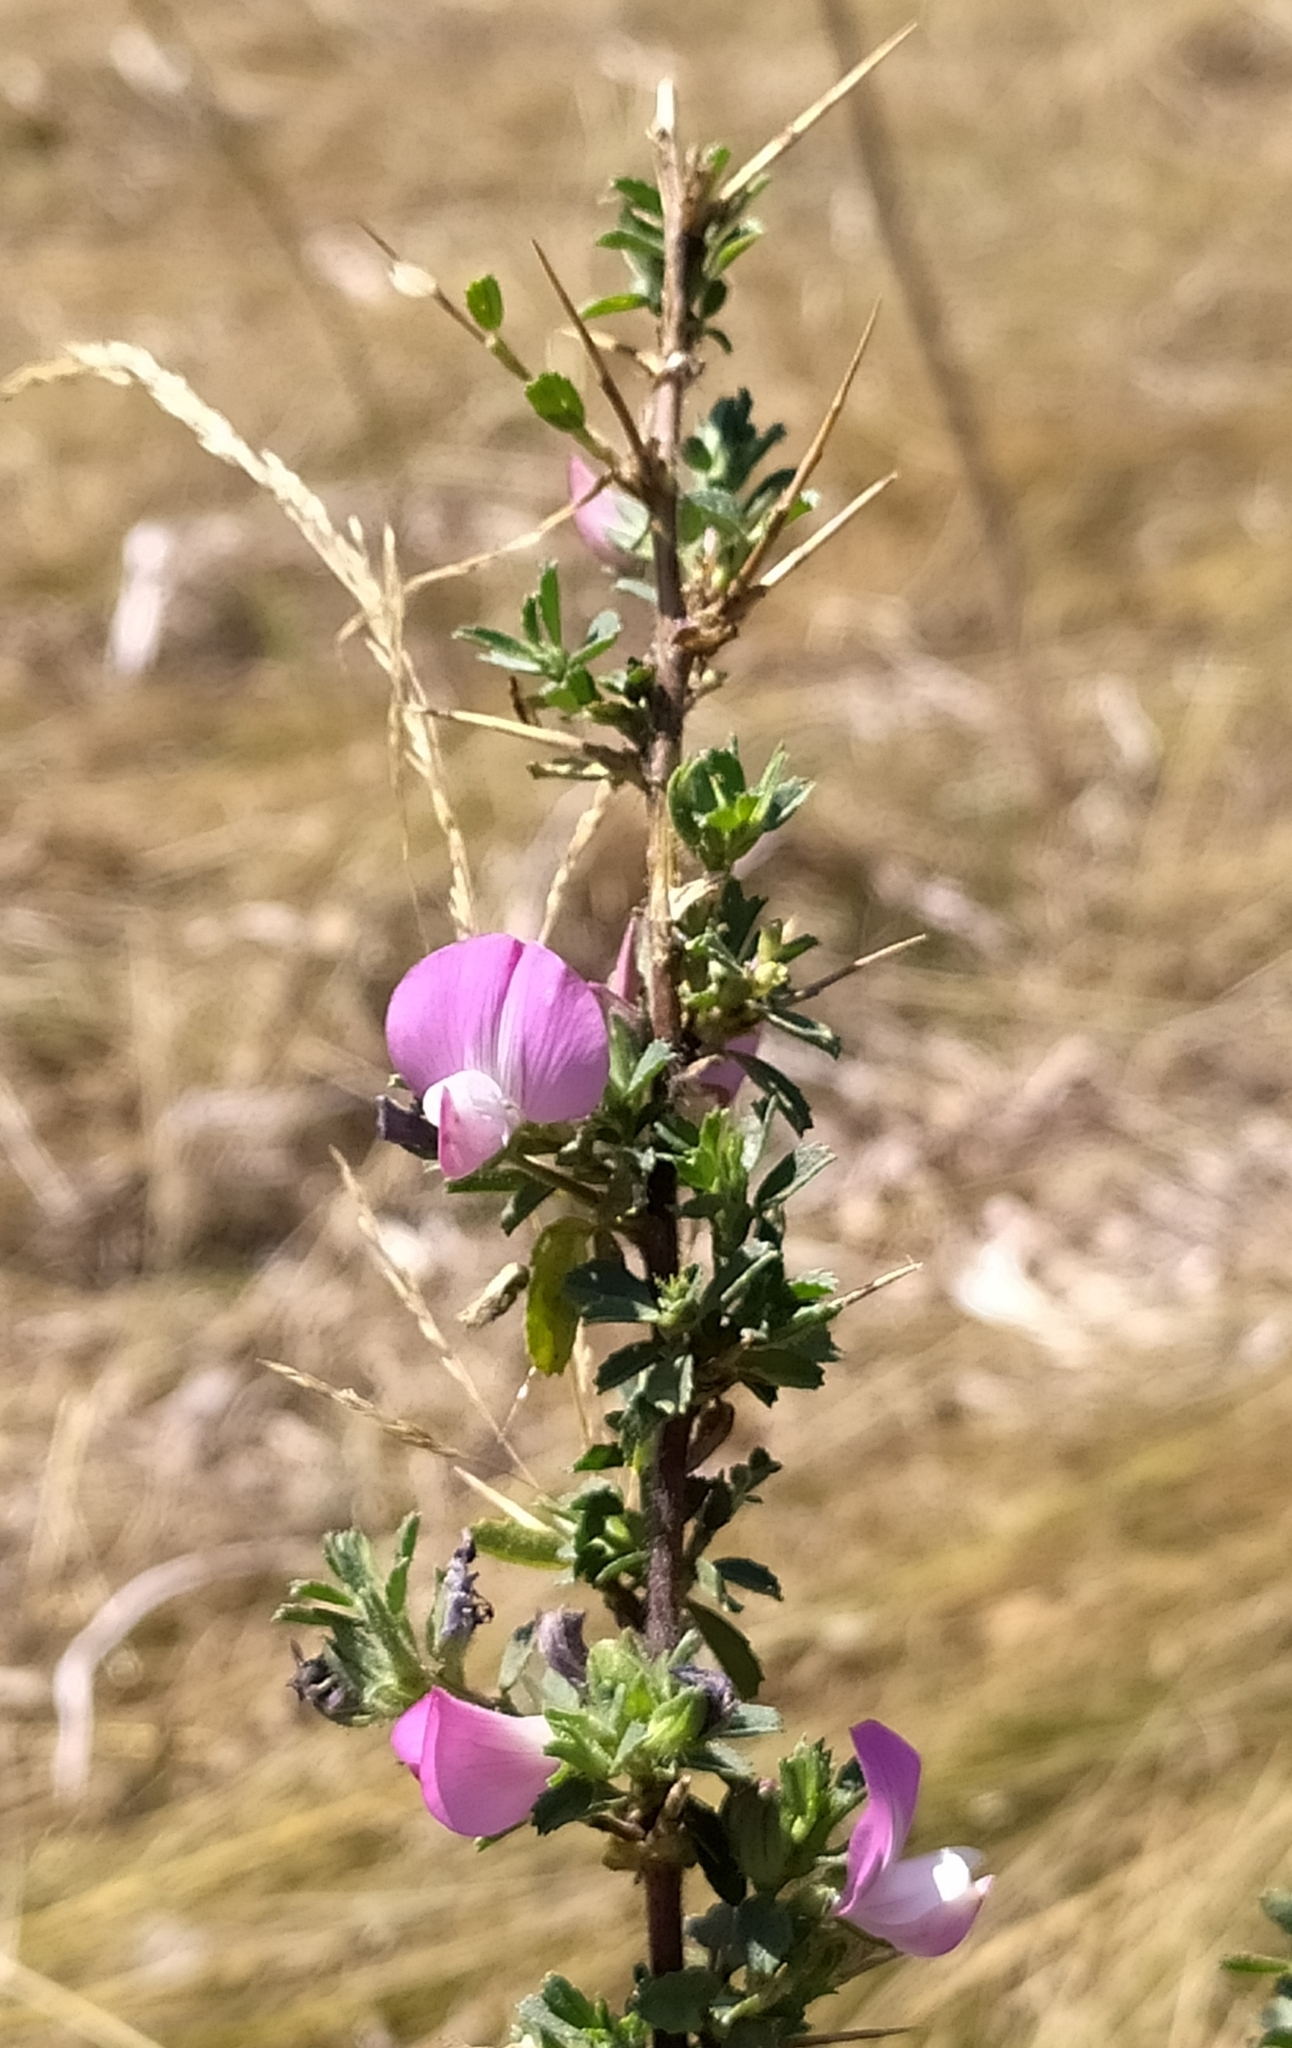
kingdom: Plantae
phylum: Tracheophyta
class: Magnoliopsida
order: Fabales
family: Fabaceae
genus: Ononis
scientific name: Ononis spinosa
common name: Spiny restharrow
